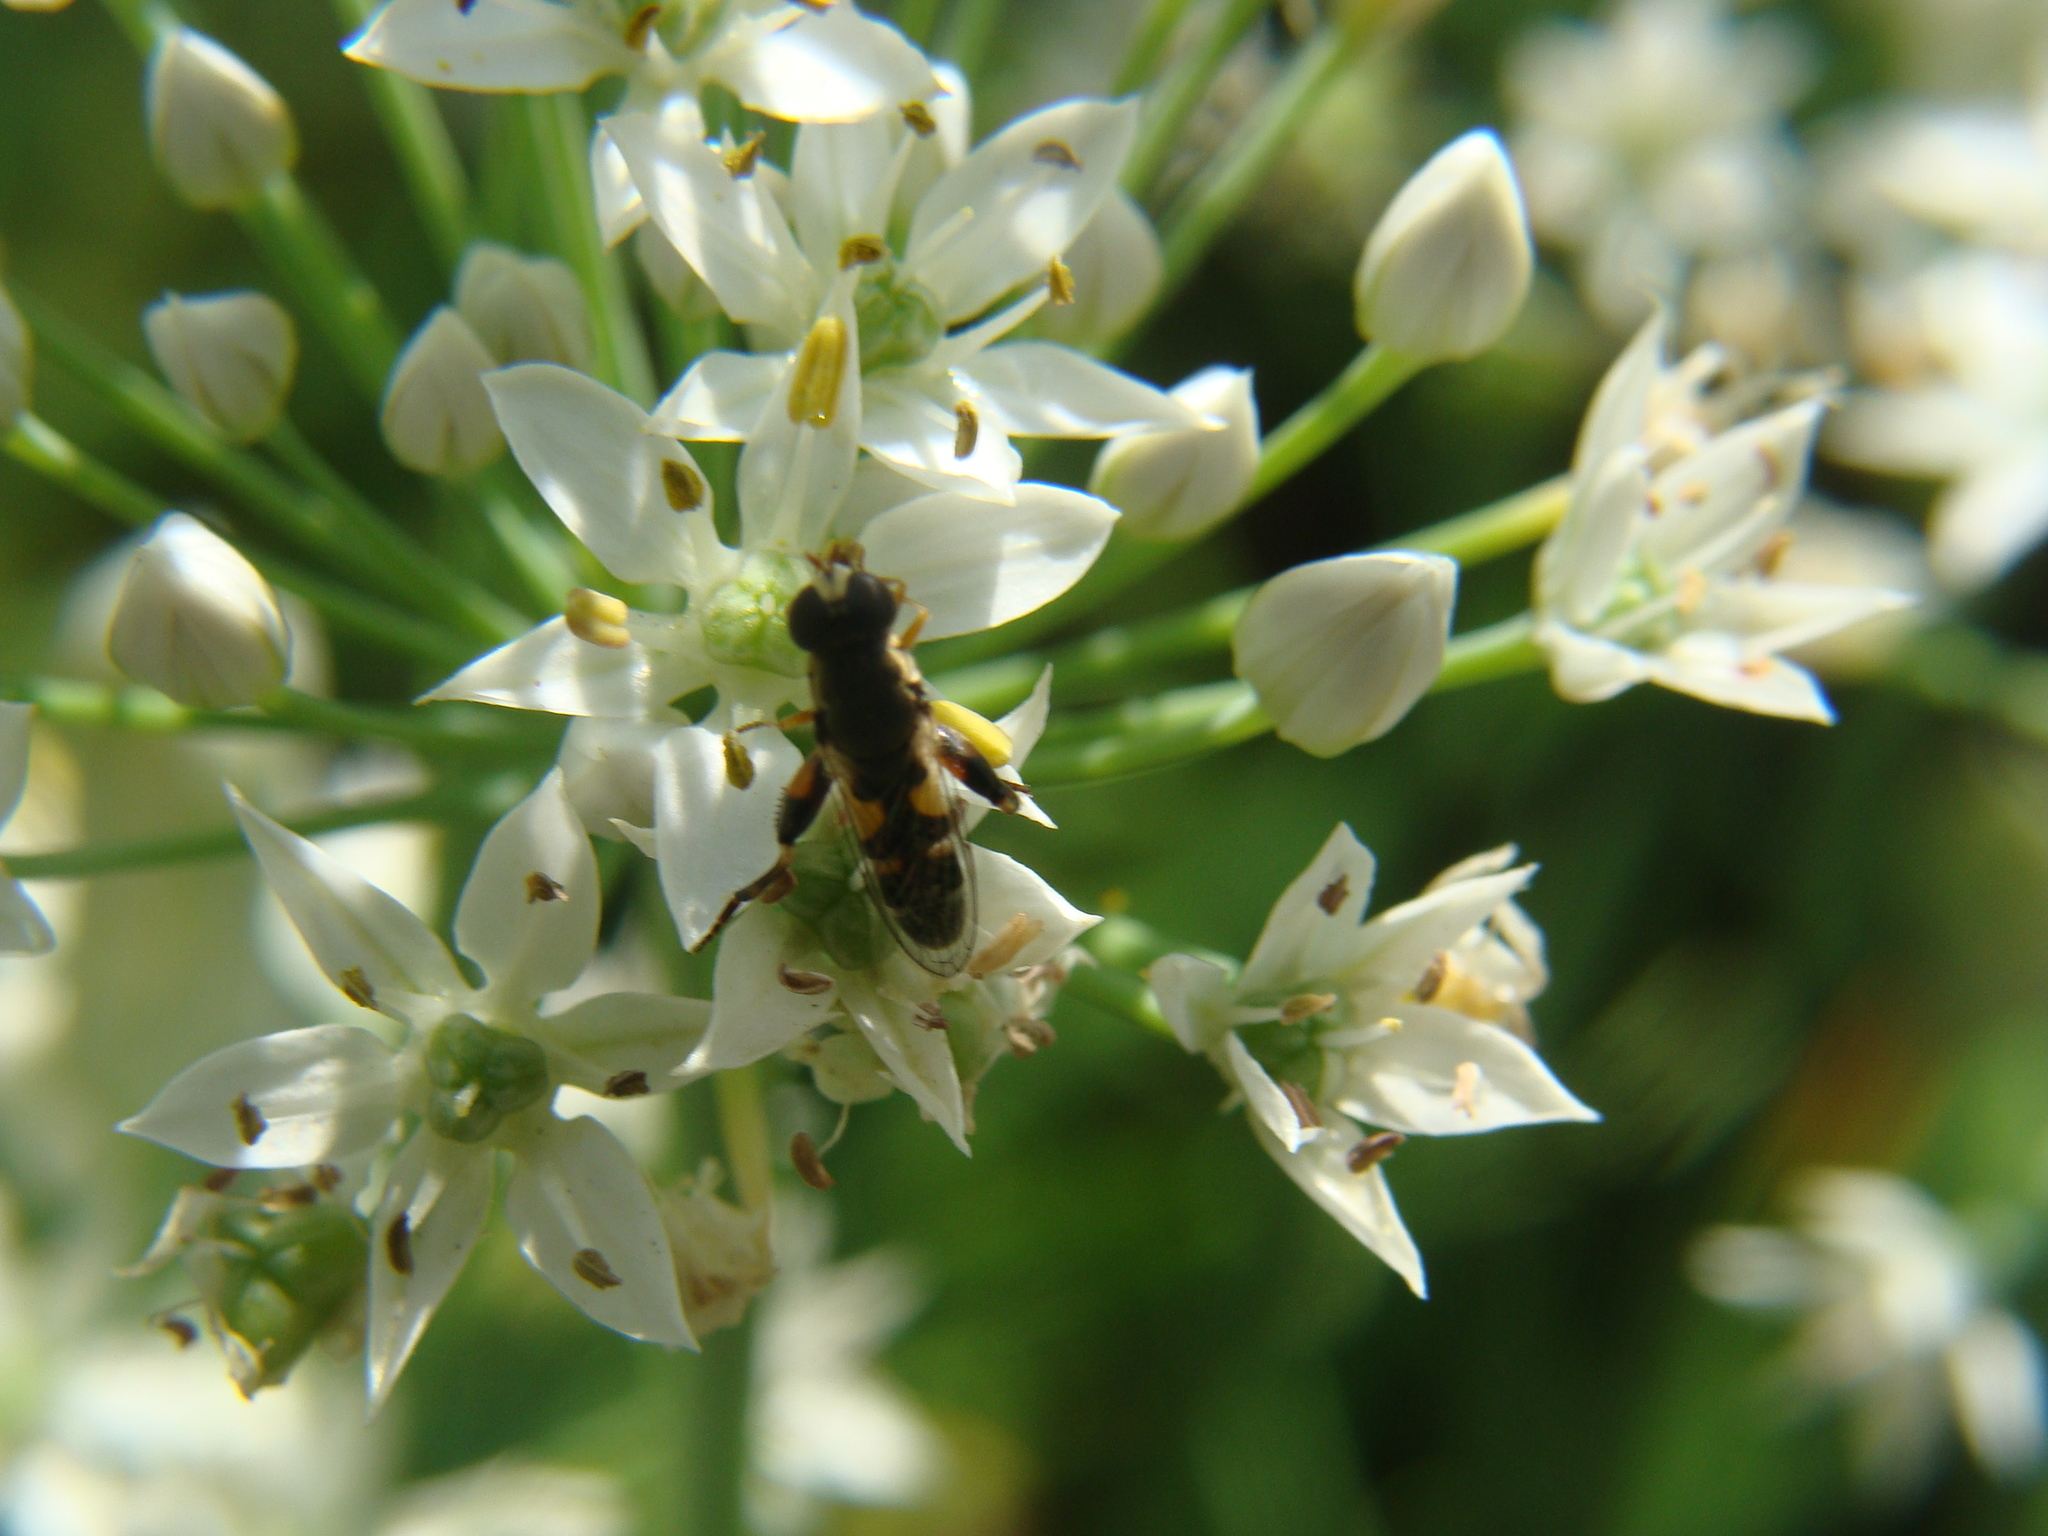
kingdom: Animalia
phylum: Arthropoda
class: Insecta
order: Diptera
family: Syrphidae
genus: Syritta
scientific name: Syritta pipiens
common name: Hover fly
